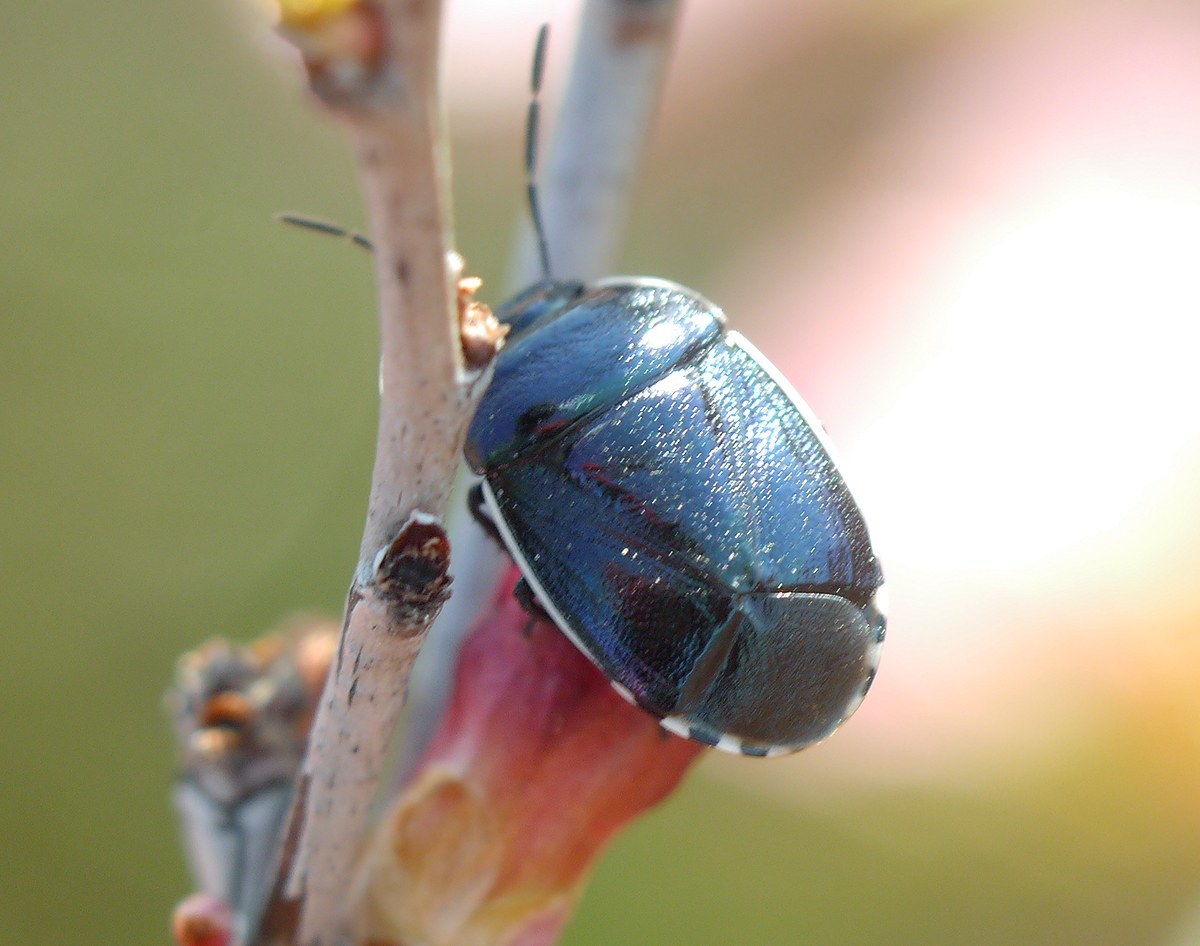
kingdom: Animalia
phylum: Arthropoda
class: Insecta
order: Hemiptera
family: Cydnidae
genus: Canthophorus
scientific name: Canthophorus melanopterus
